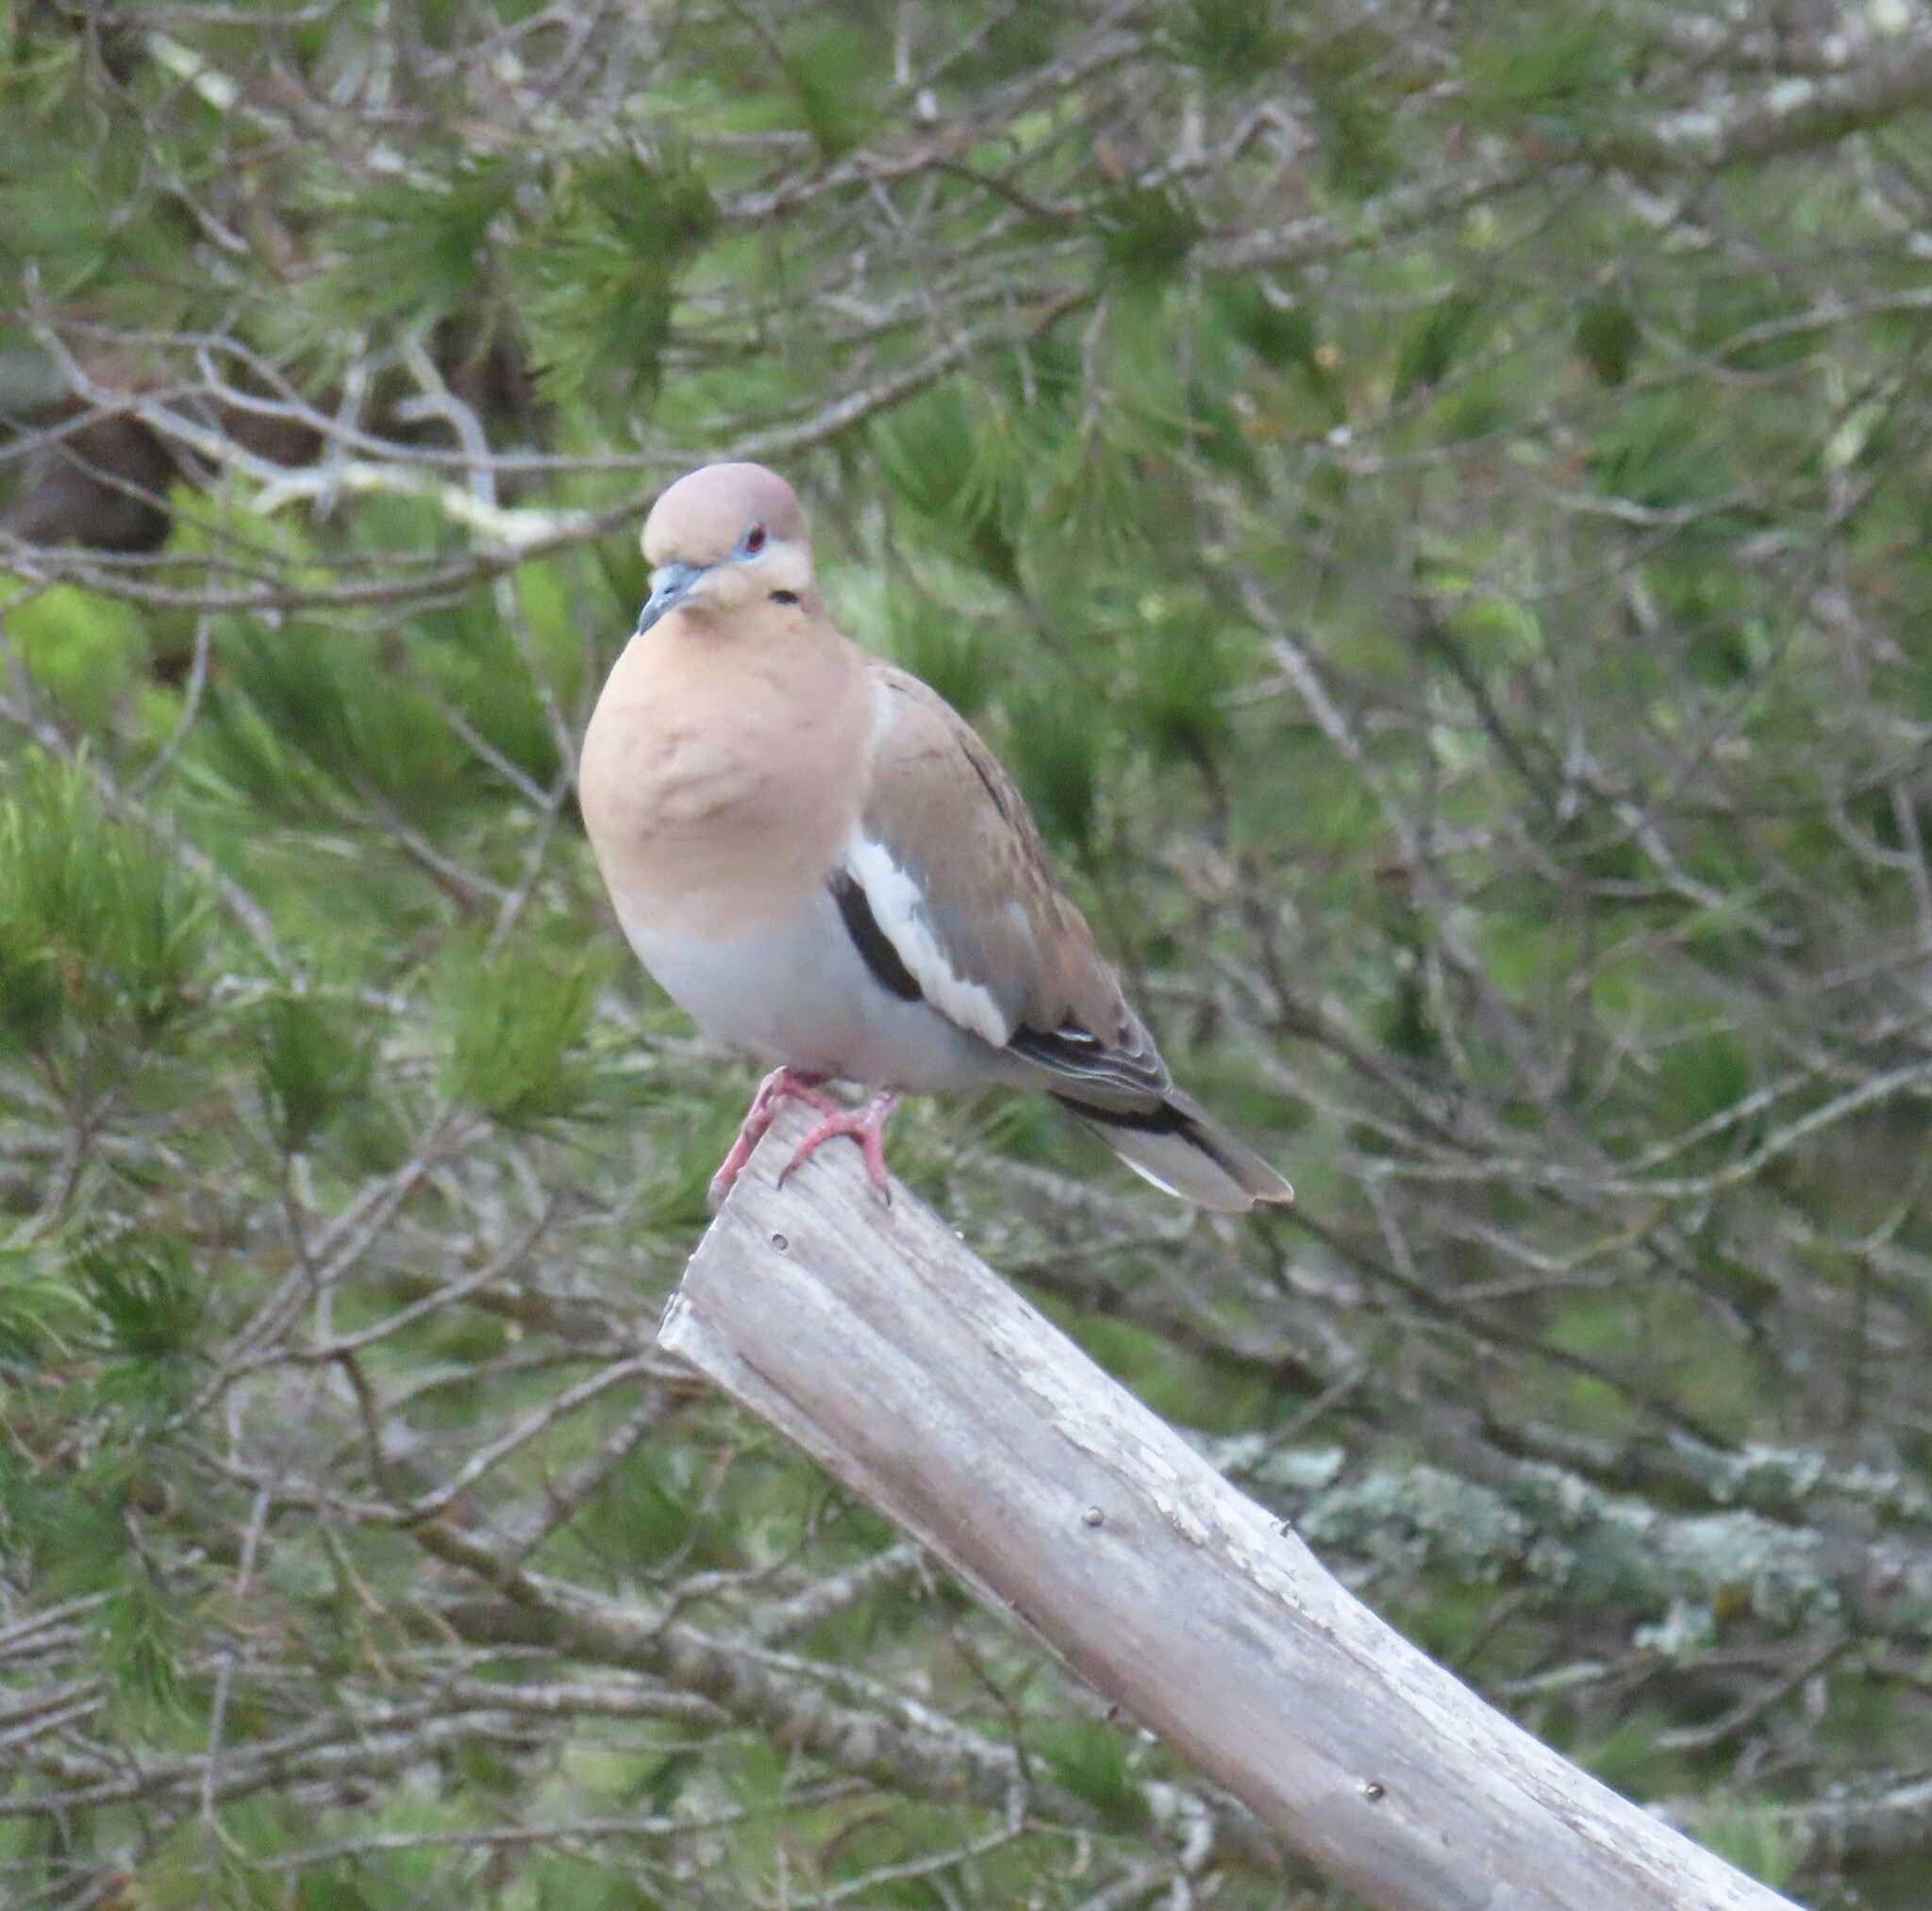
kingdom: Animalia
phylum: Chordata
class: Aves
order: Columbiformes
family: Columbidae
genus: Zenaida
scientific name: Zenaida asiatica
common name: White-winged dove
